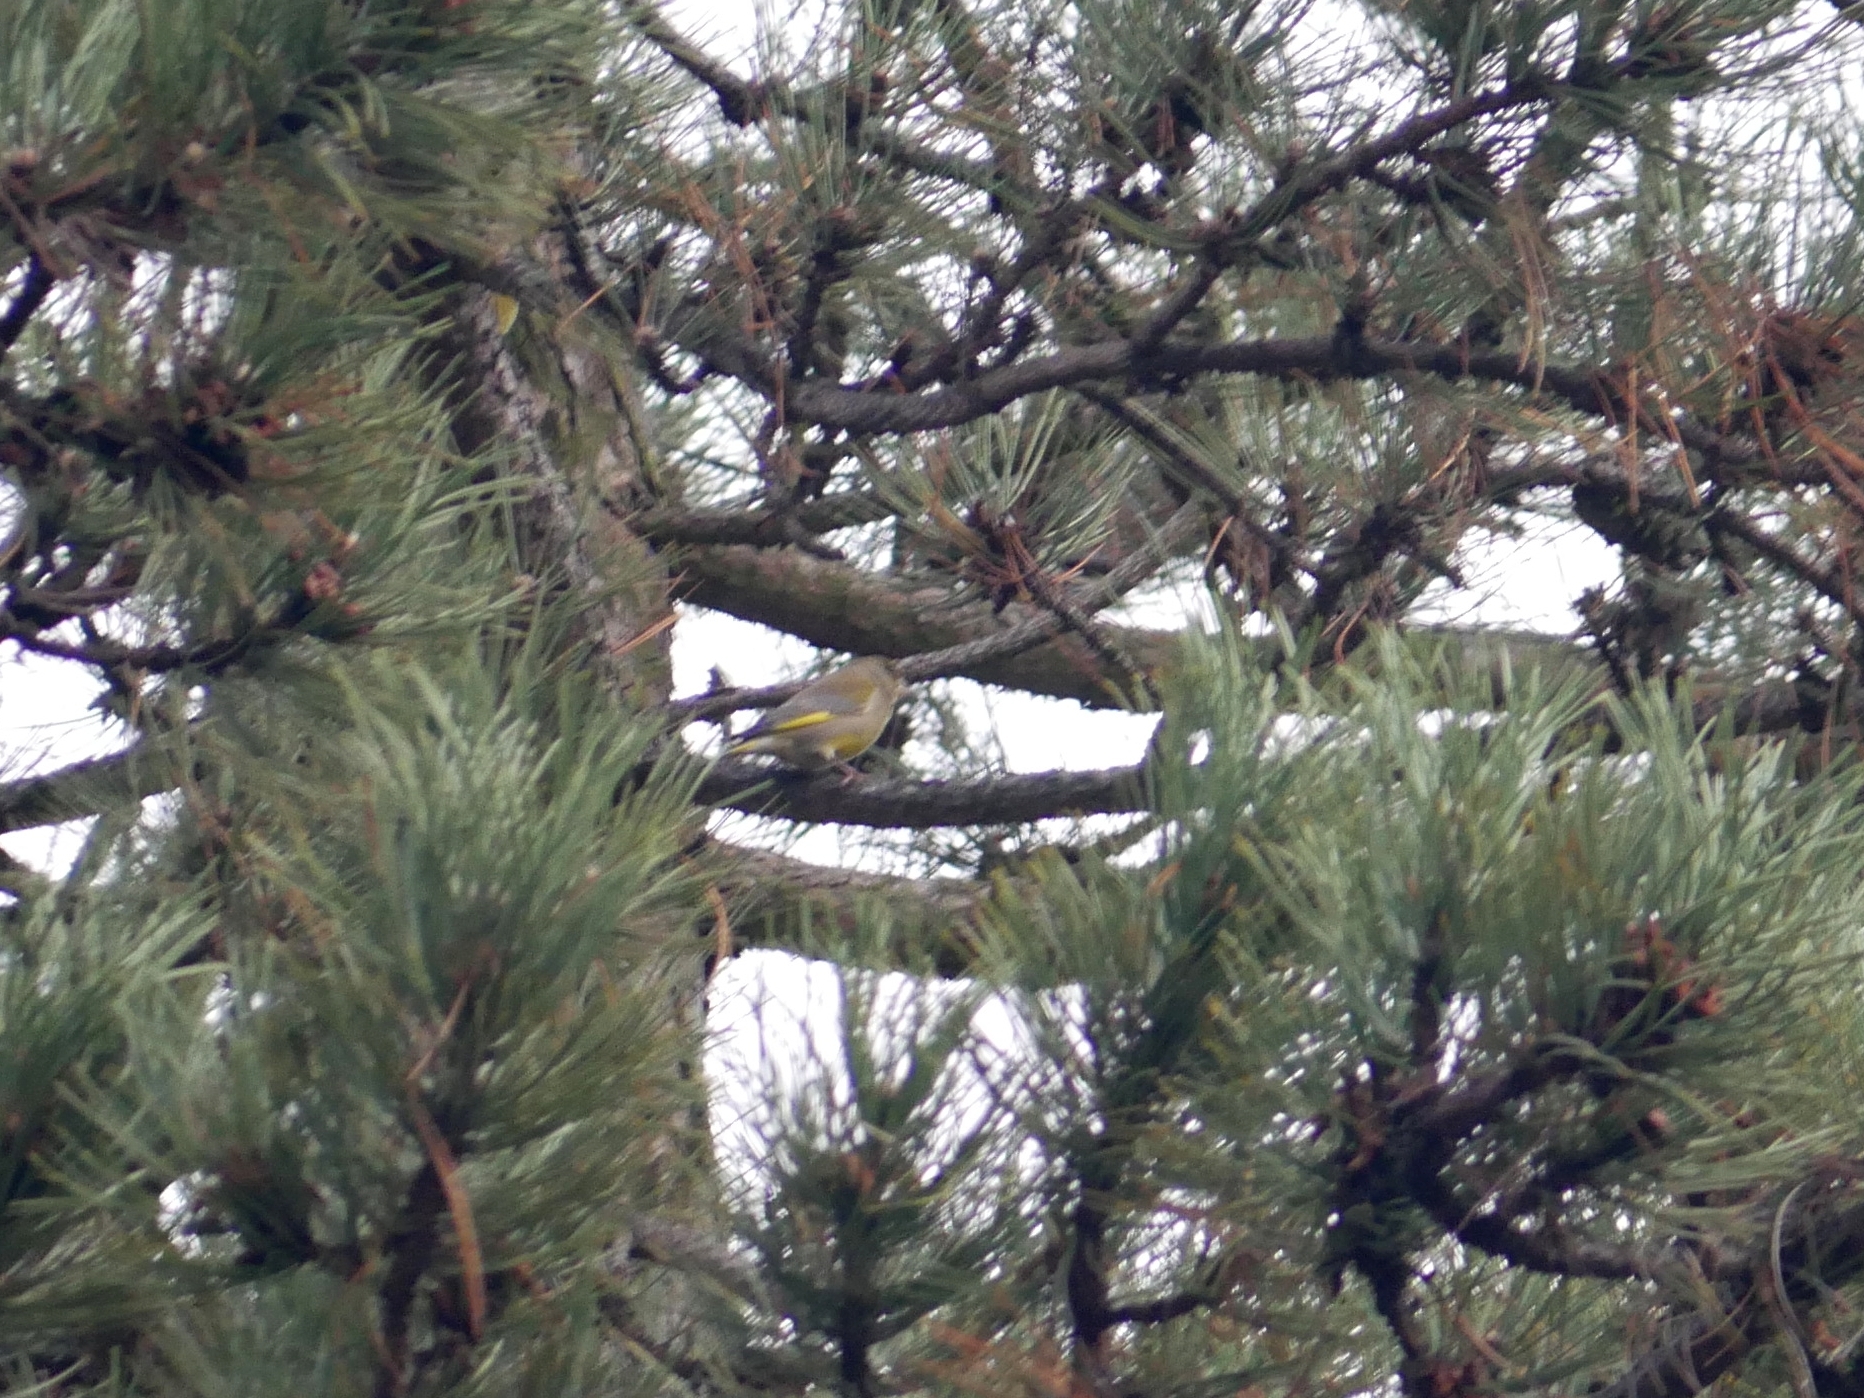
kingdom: Plantae
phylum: Tracheophyta
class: Liliopsida
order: Poales
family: Poaceae
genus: Chloris
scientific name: Chloris chloris
